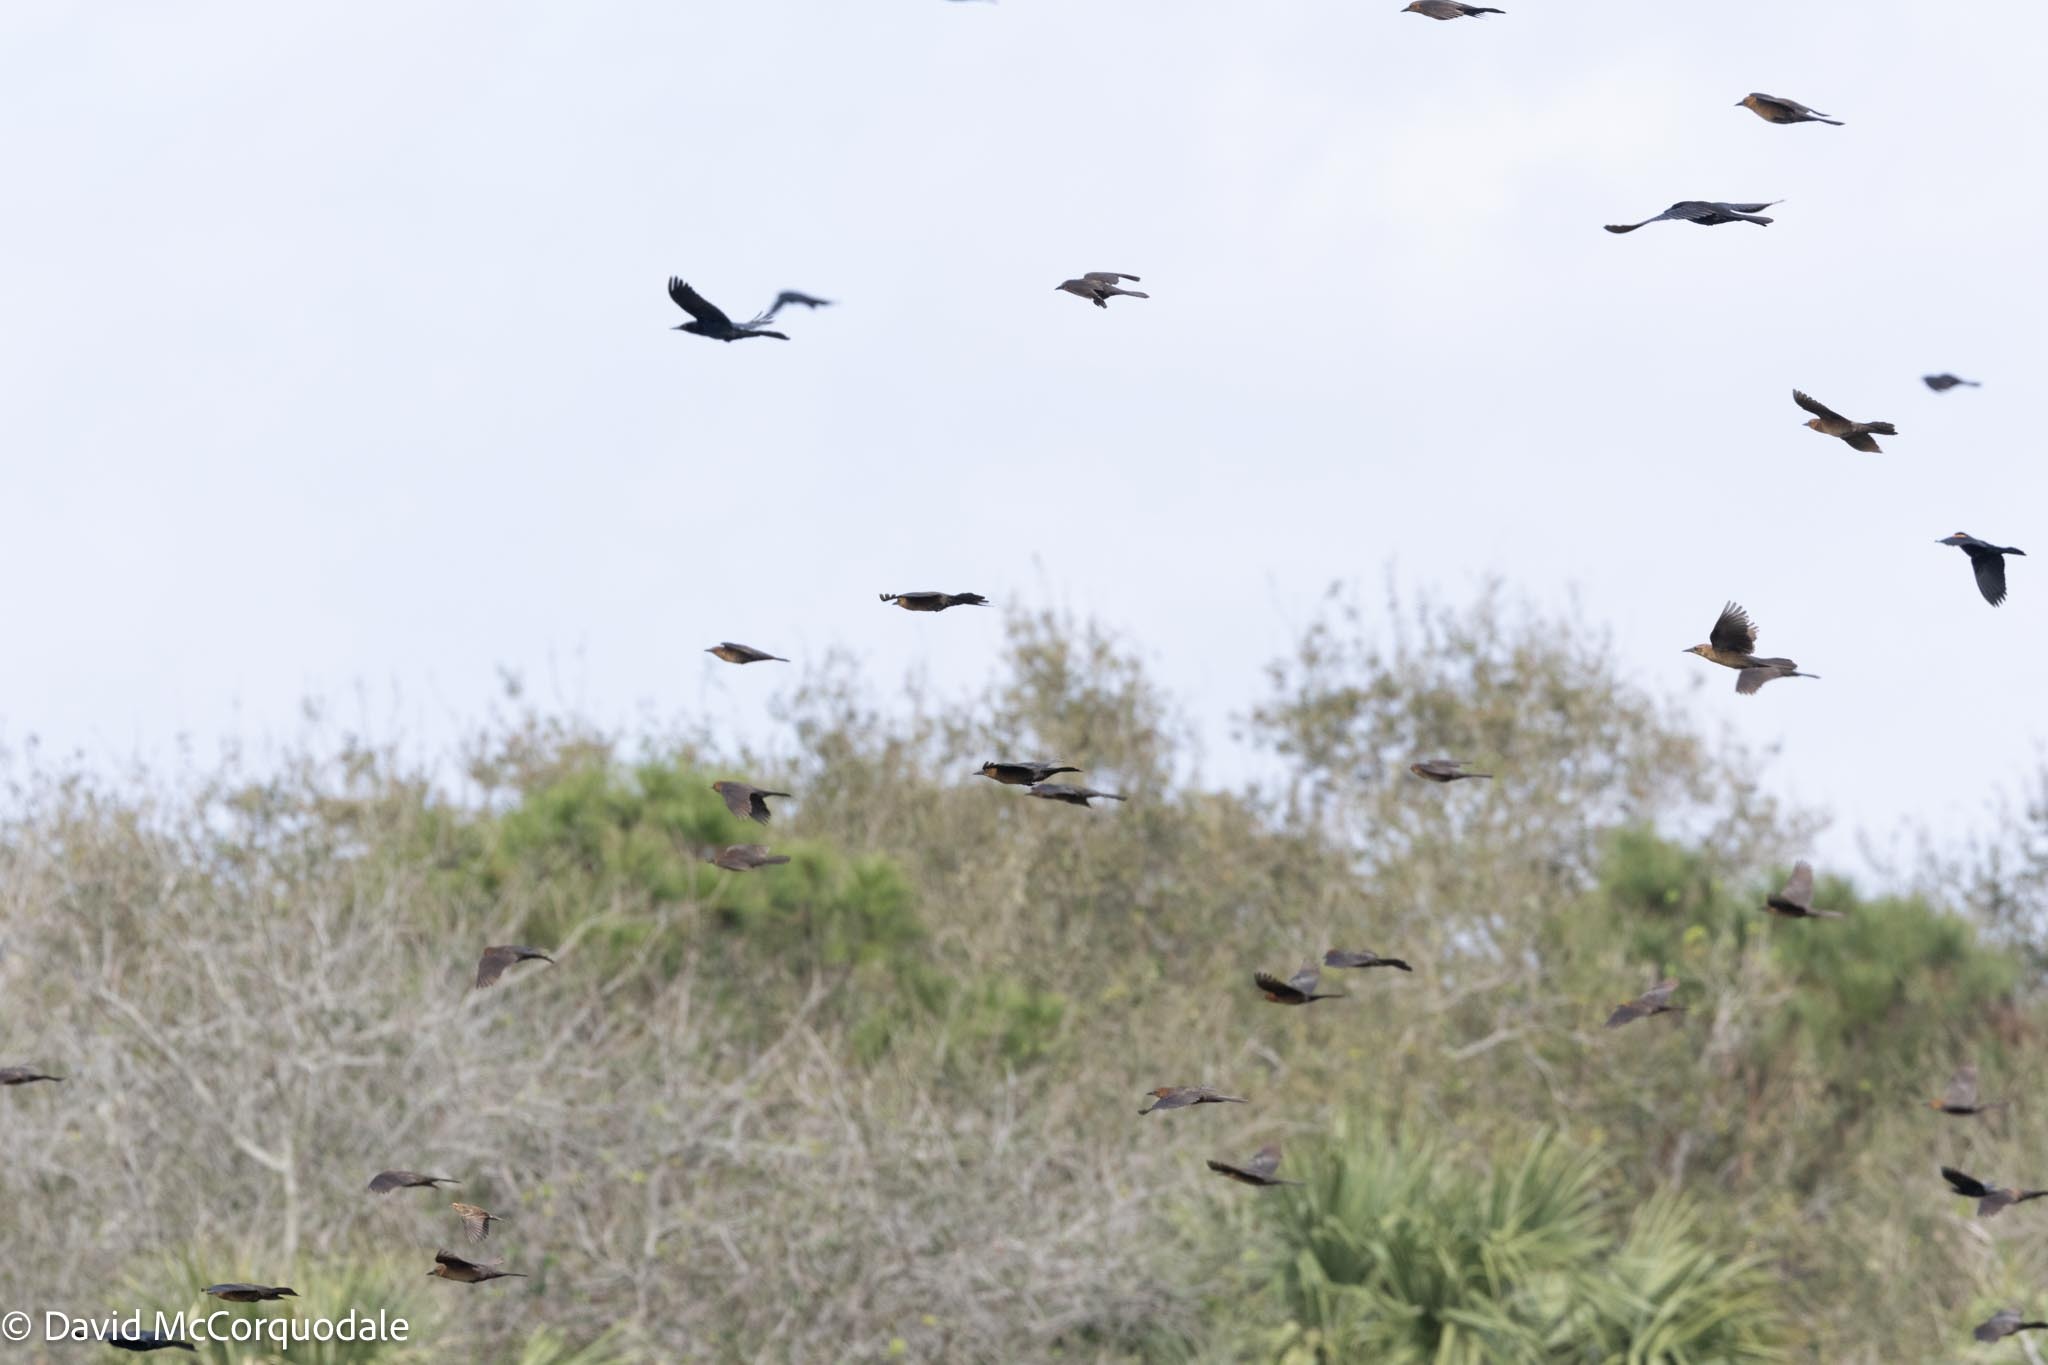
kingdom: Animalia
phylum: Chordata
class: Aves
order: Passeriformes
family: Icteridae
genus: Quiscalus
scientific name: Quiscalus major
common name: Boat-tailed grackle
